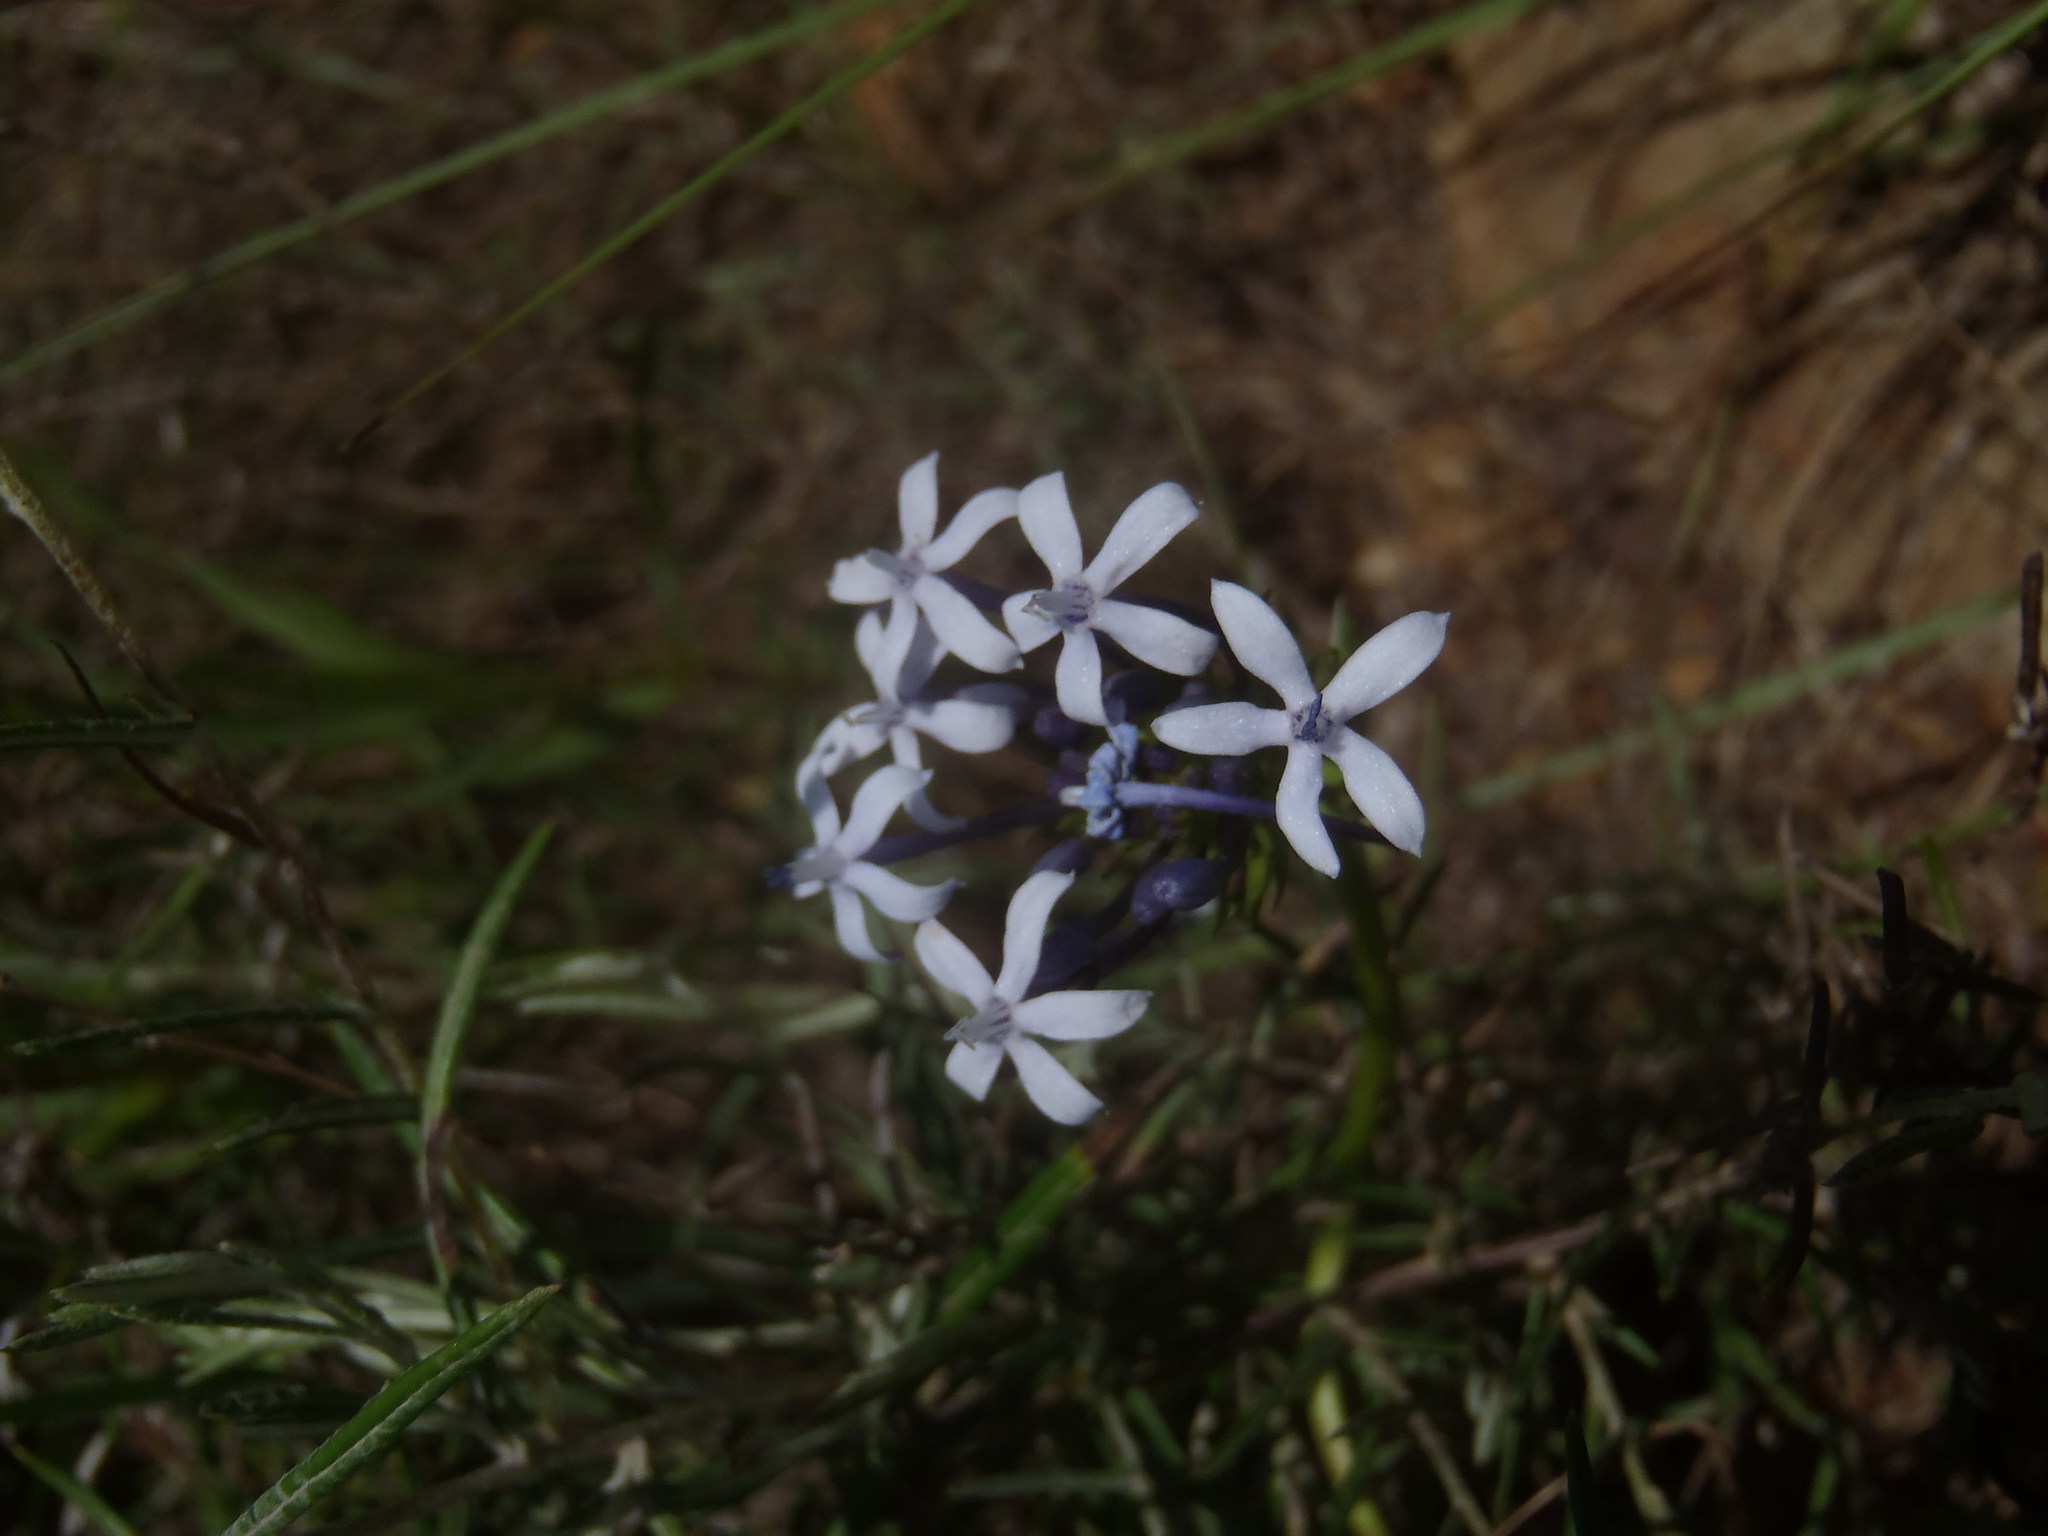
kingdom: Plantae
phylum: Tracheophyta
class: Magnoliopsida
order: Gentianales
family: Rubiaceae
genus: Pentanisia
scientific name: Pentanisia angustifolia
